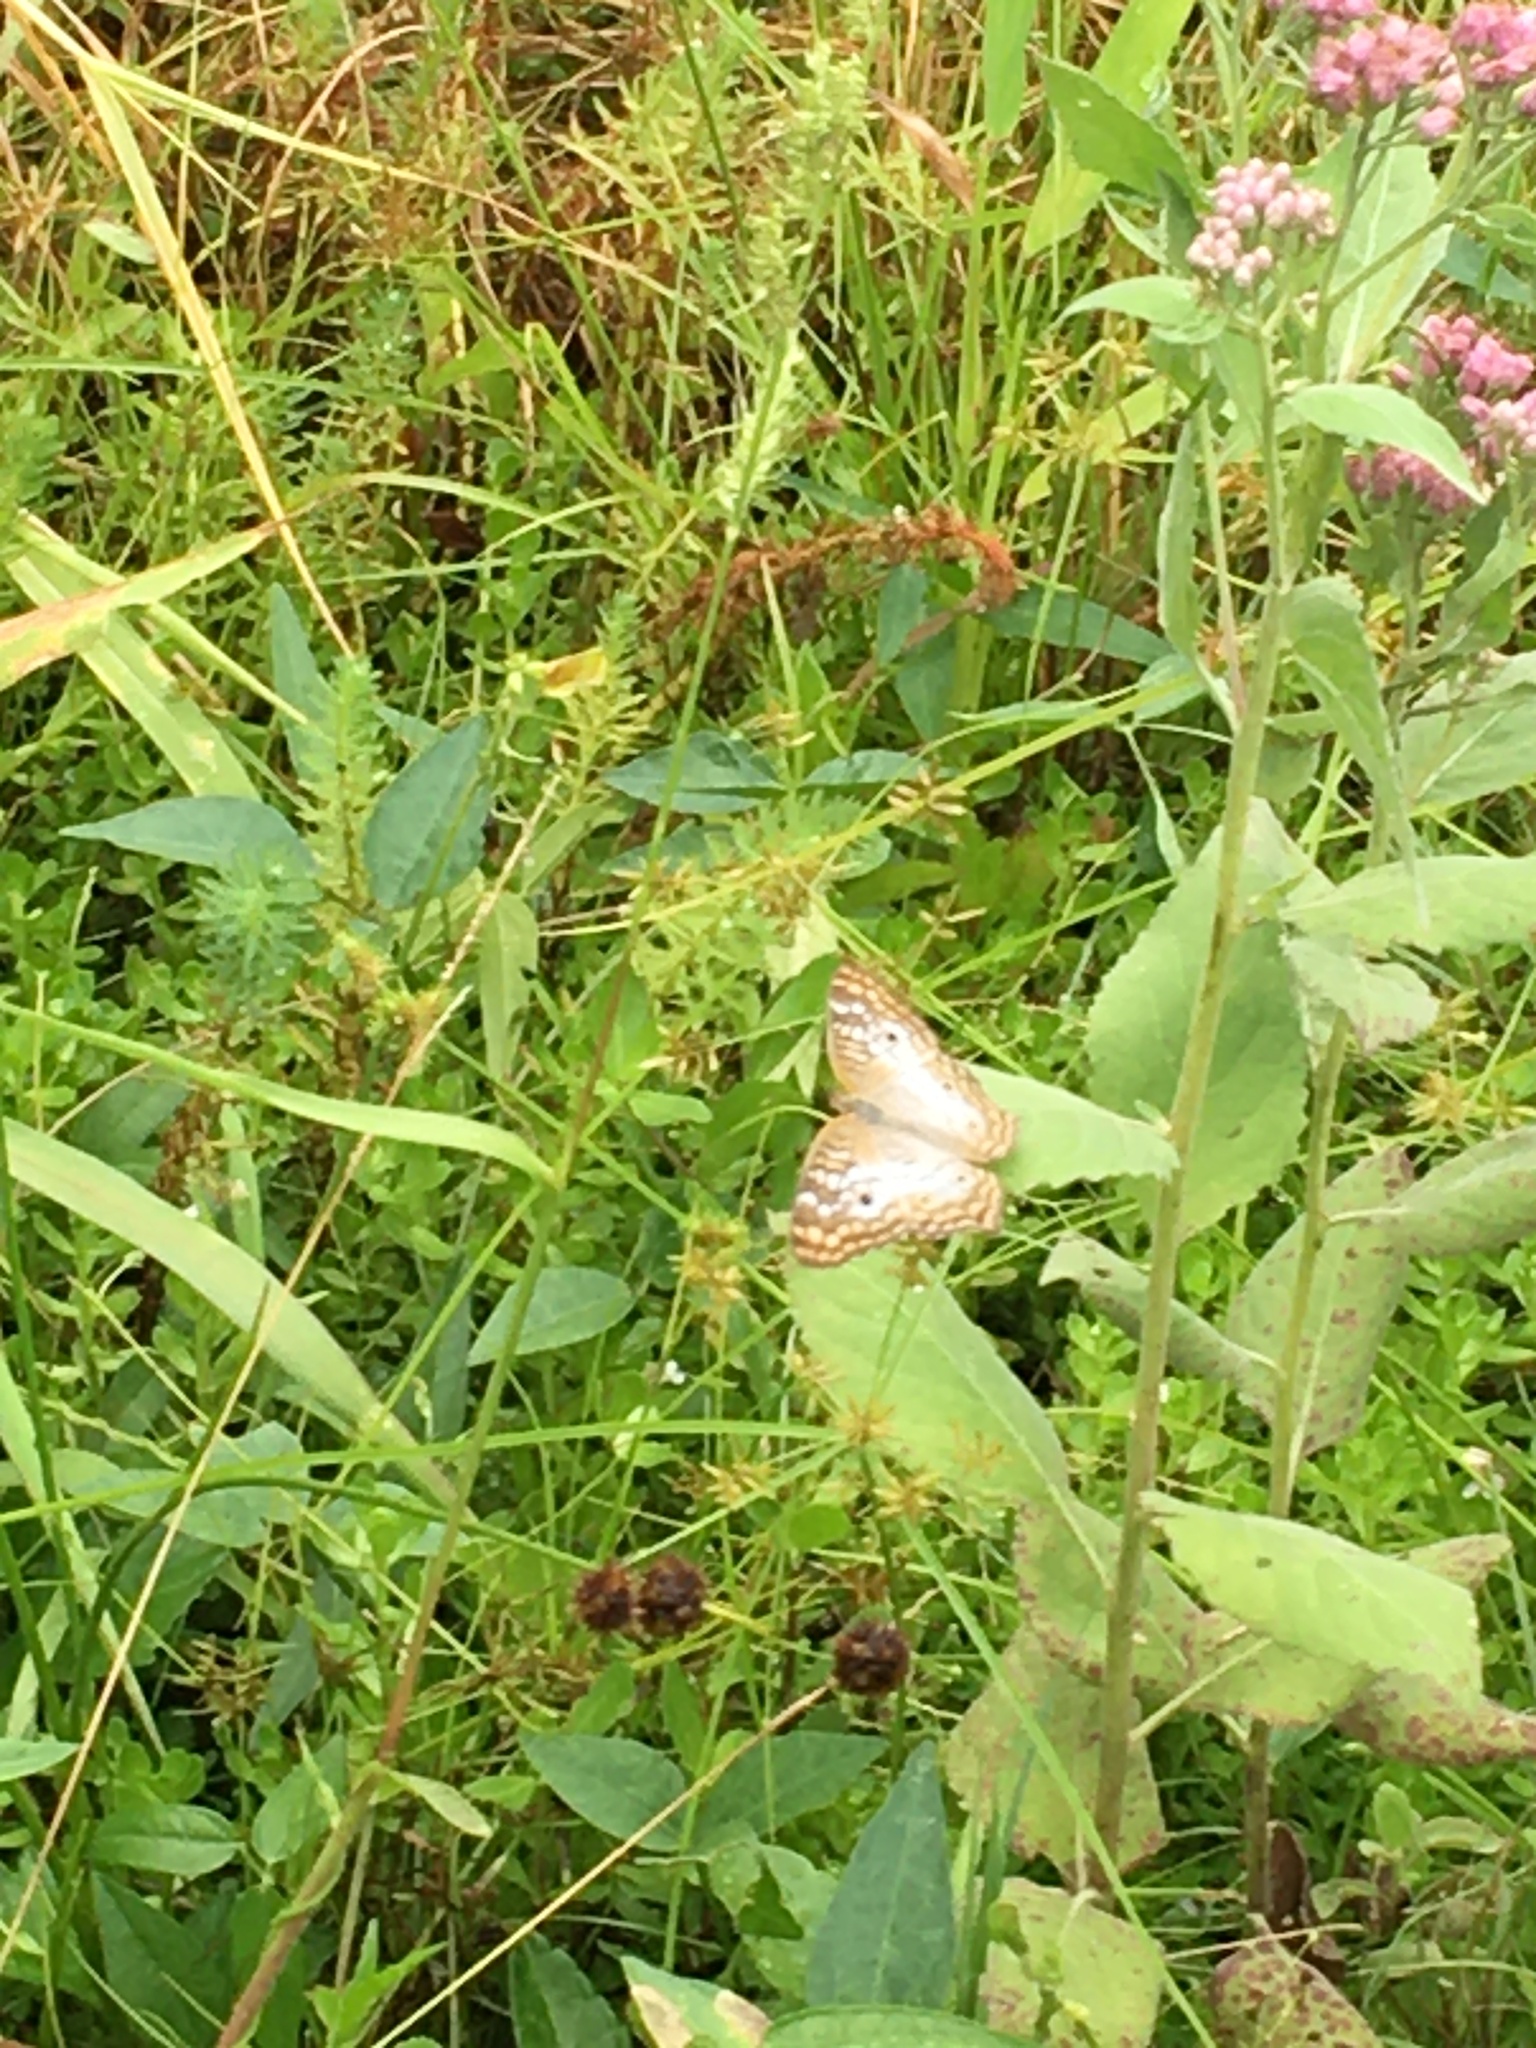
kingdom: Animalia
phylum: Arthropoda
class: Insecta
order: Lepidoptera
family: Nymphalidae
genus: Anartia
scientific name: Anartia jatrophae
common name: White peacock
